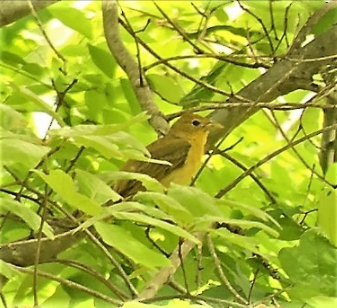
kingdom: Animalia
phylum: Chordata
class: Aves
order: Passeriformes
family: Cardinalidae
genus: Piranga
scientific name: Piranga rubra
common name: Summer tanager
